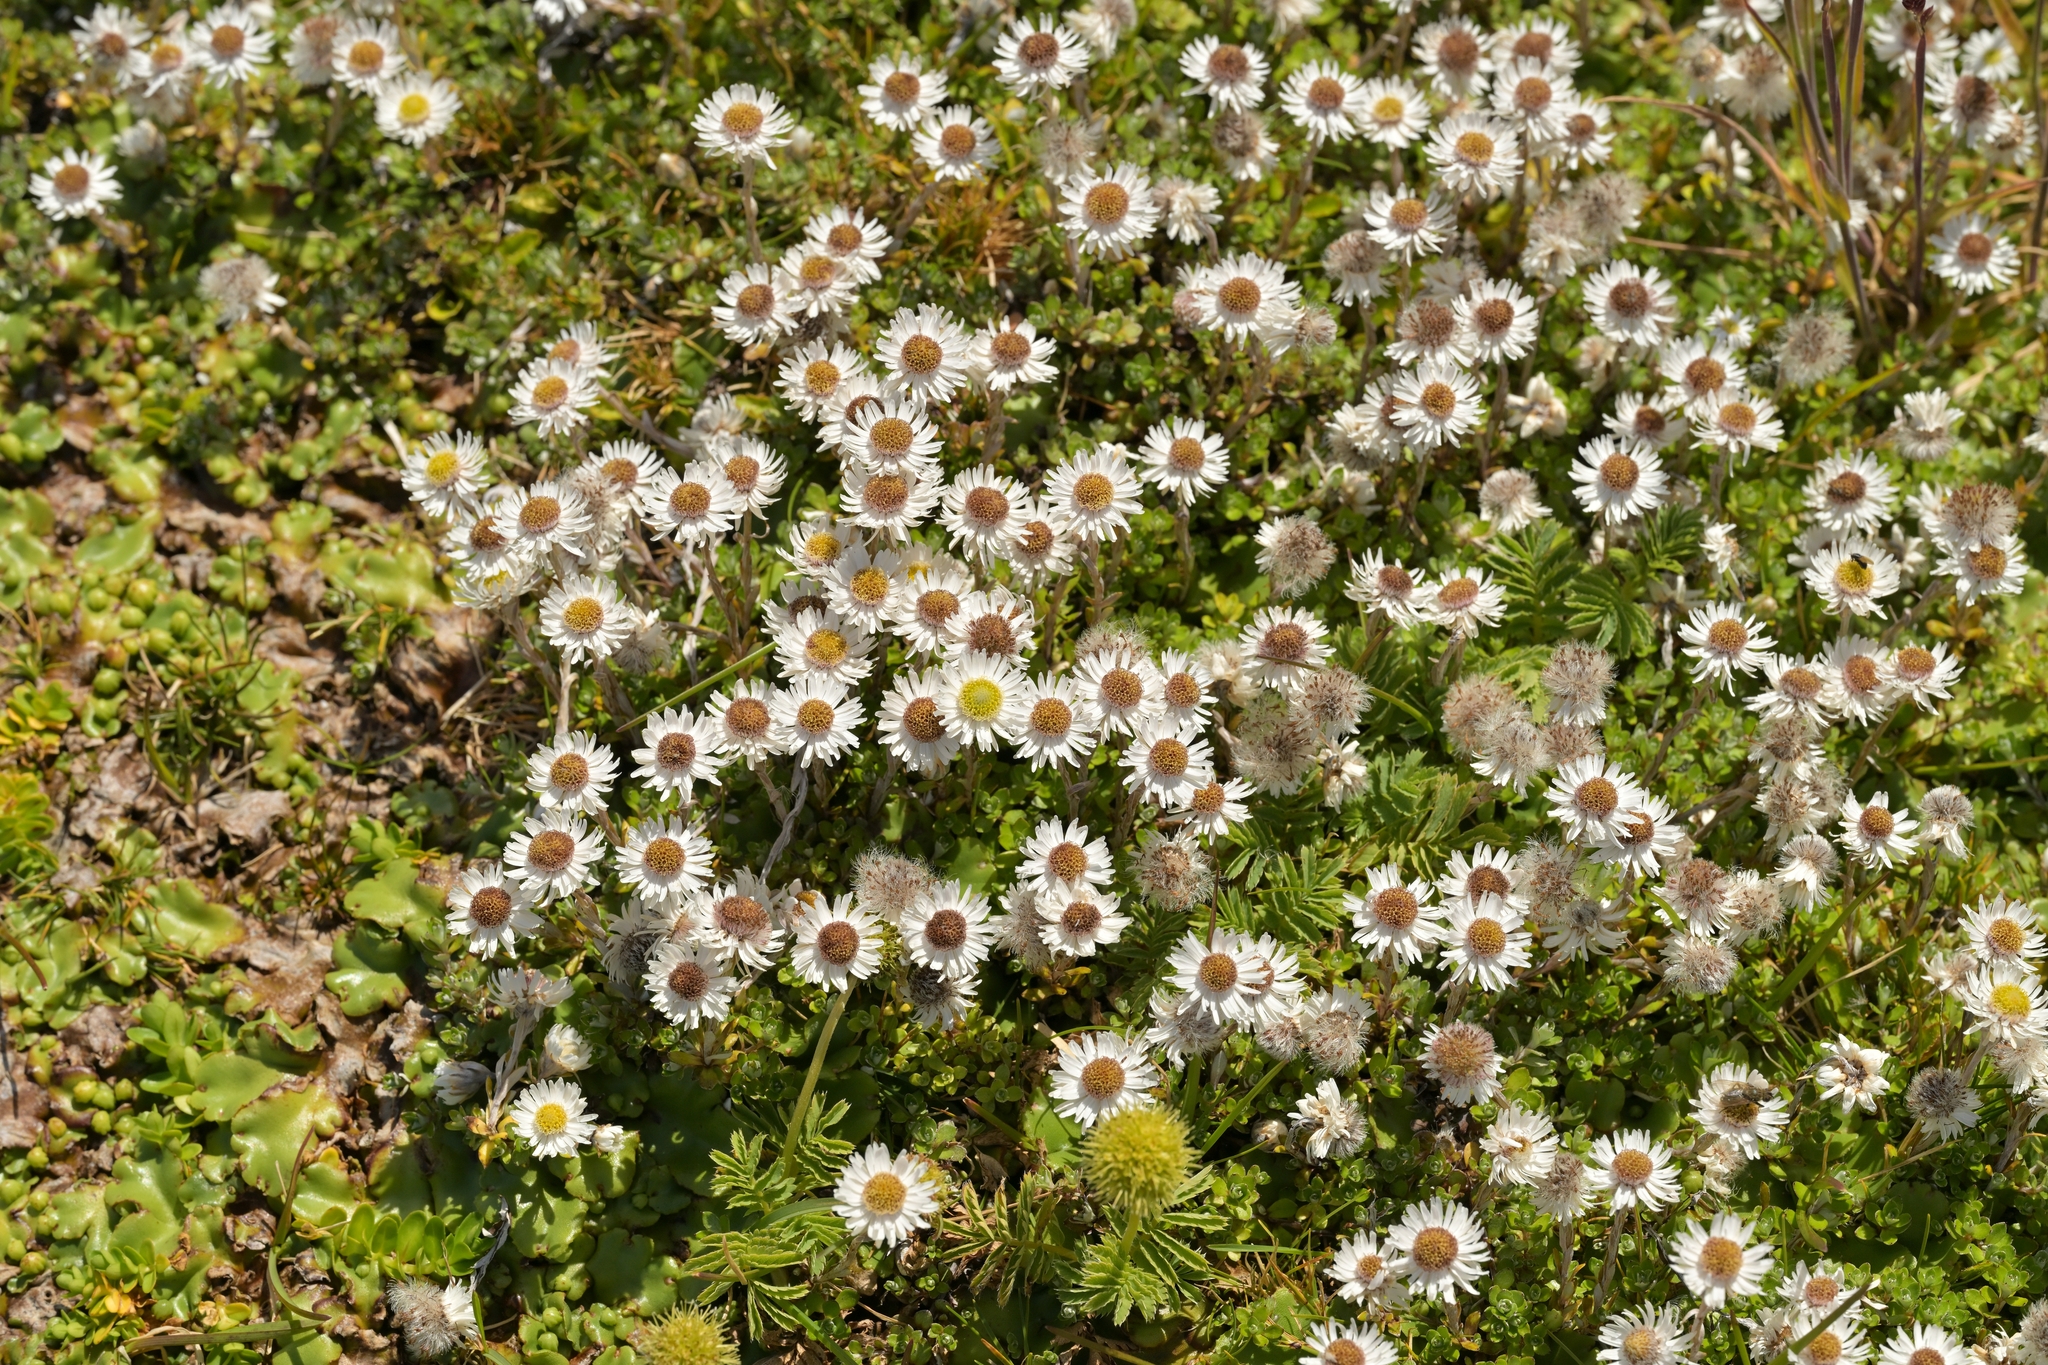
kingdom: Plantae
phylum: Tracheophyta
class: Magnoliopsida
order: Asterales
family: Asteraceae
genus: Anaphalioides
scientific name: Anaphalioides bellidioides
